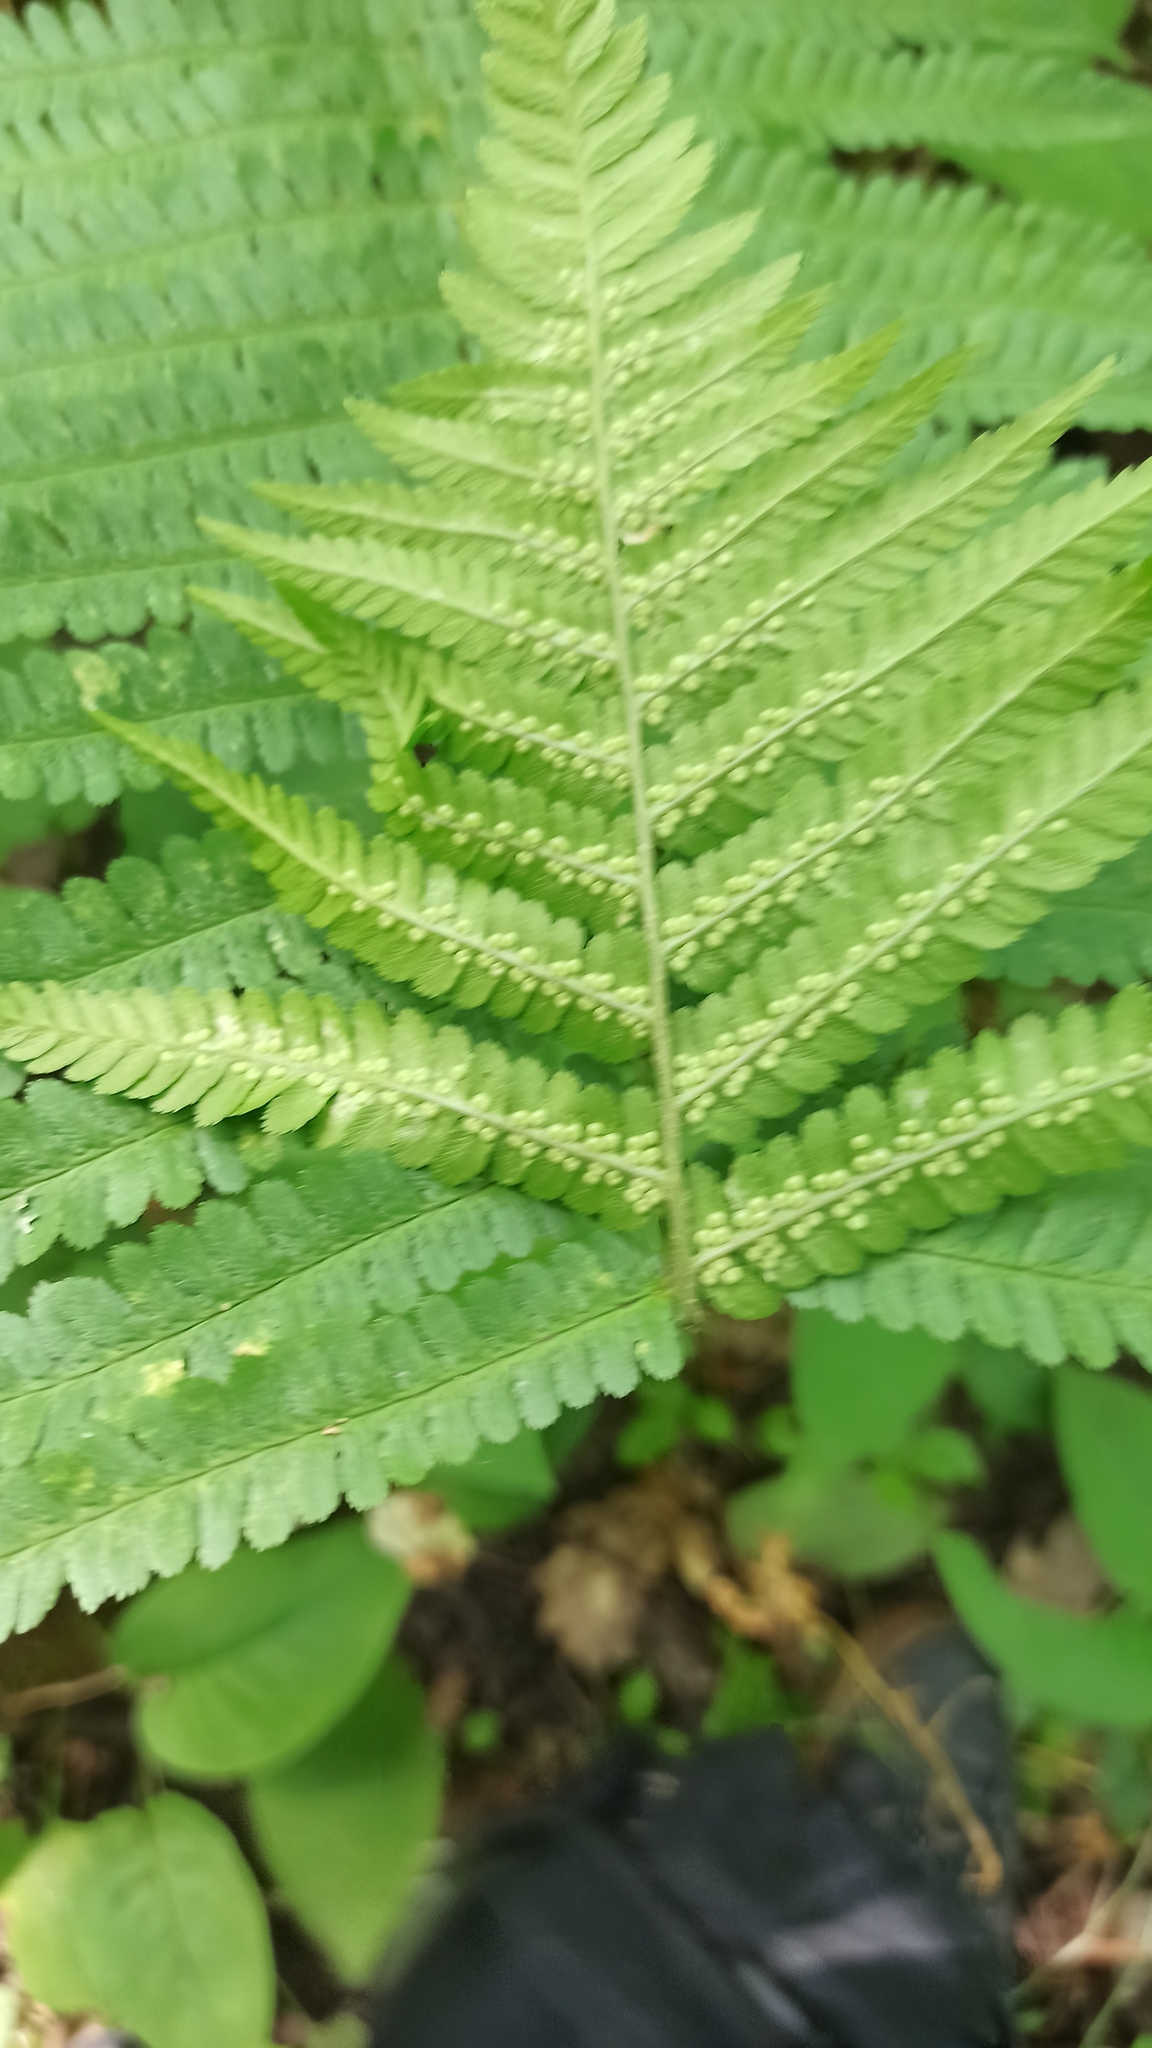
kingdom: Plantae
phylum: Tracheophyta
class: Polypodiopsida
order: Polypodiales
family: Dryopteridaceae
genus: Dryopteris
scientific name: Dryopteris filix-mas
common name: Male fern
